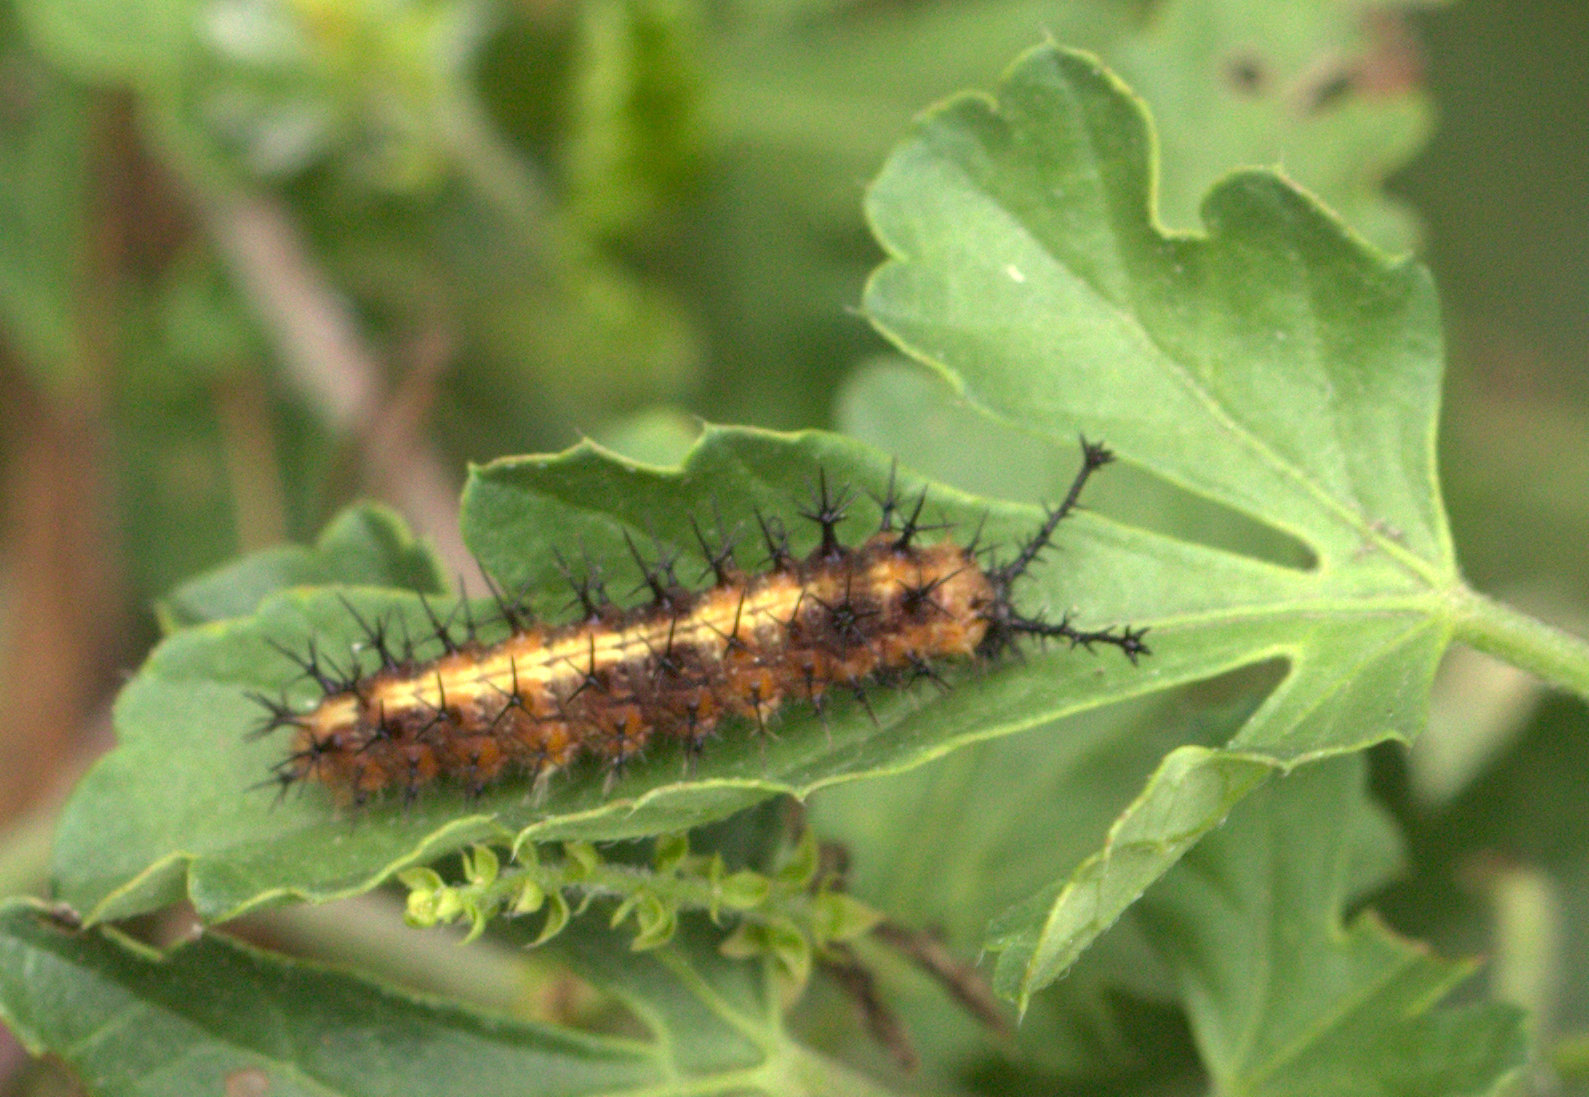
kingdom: Animalia
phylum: Arthropoda
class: Insecta
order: Lepidoptera
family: Nymphalidae
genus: Byblia
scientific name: Byblia ilithyia
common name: Spotted joker
